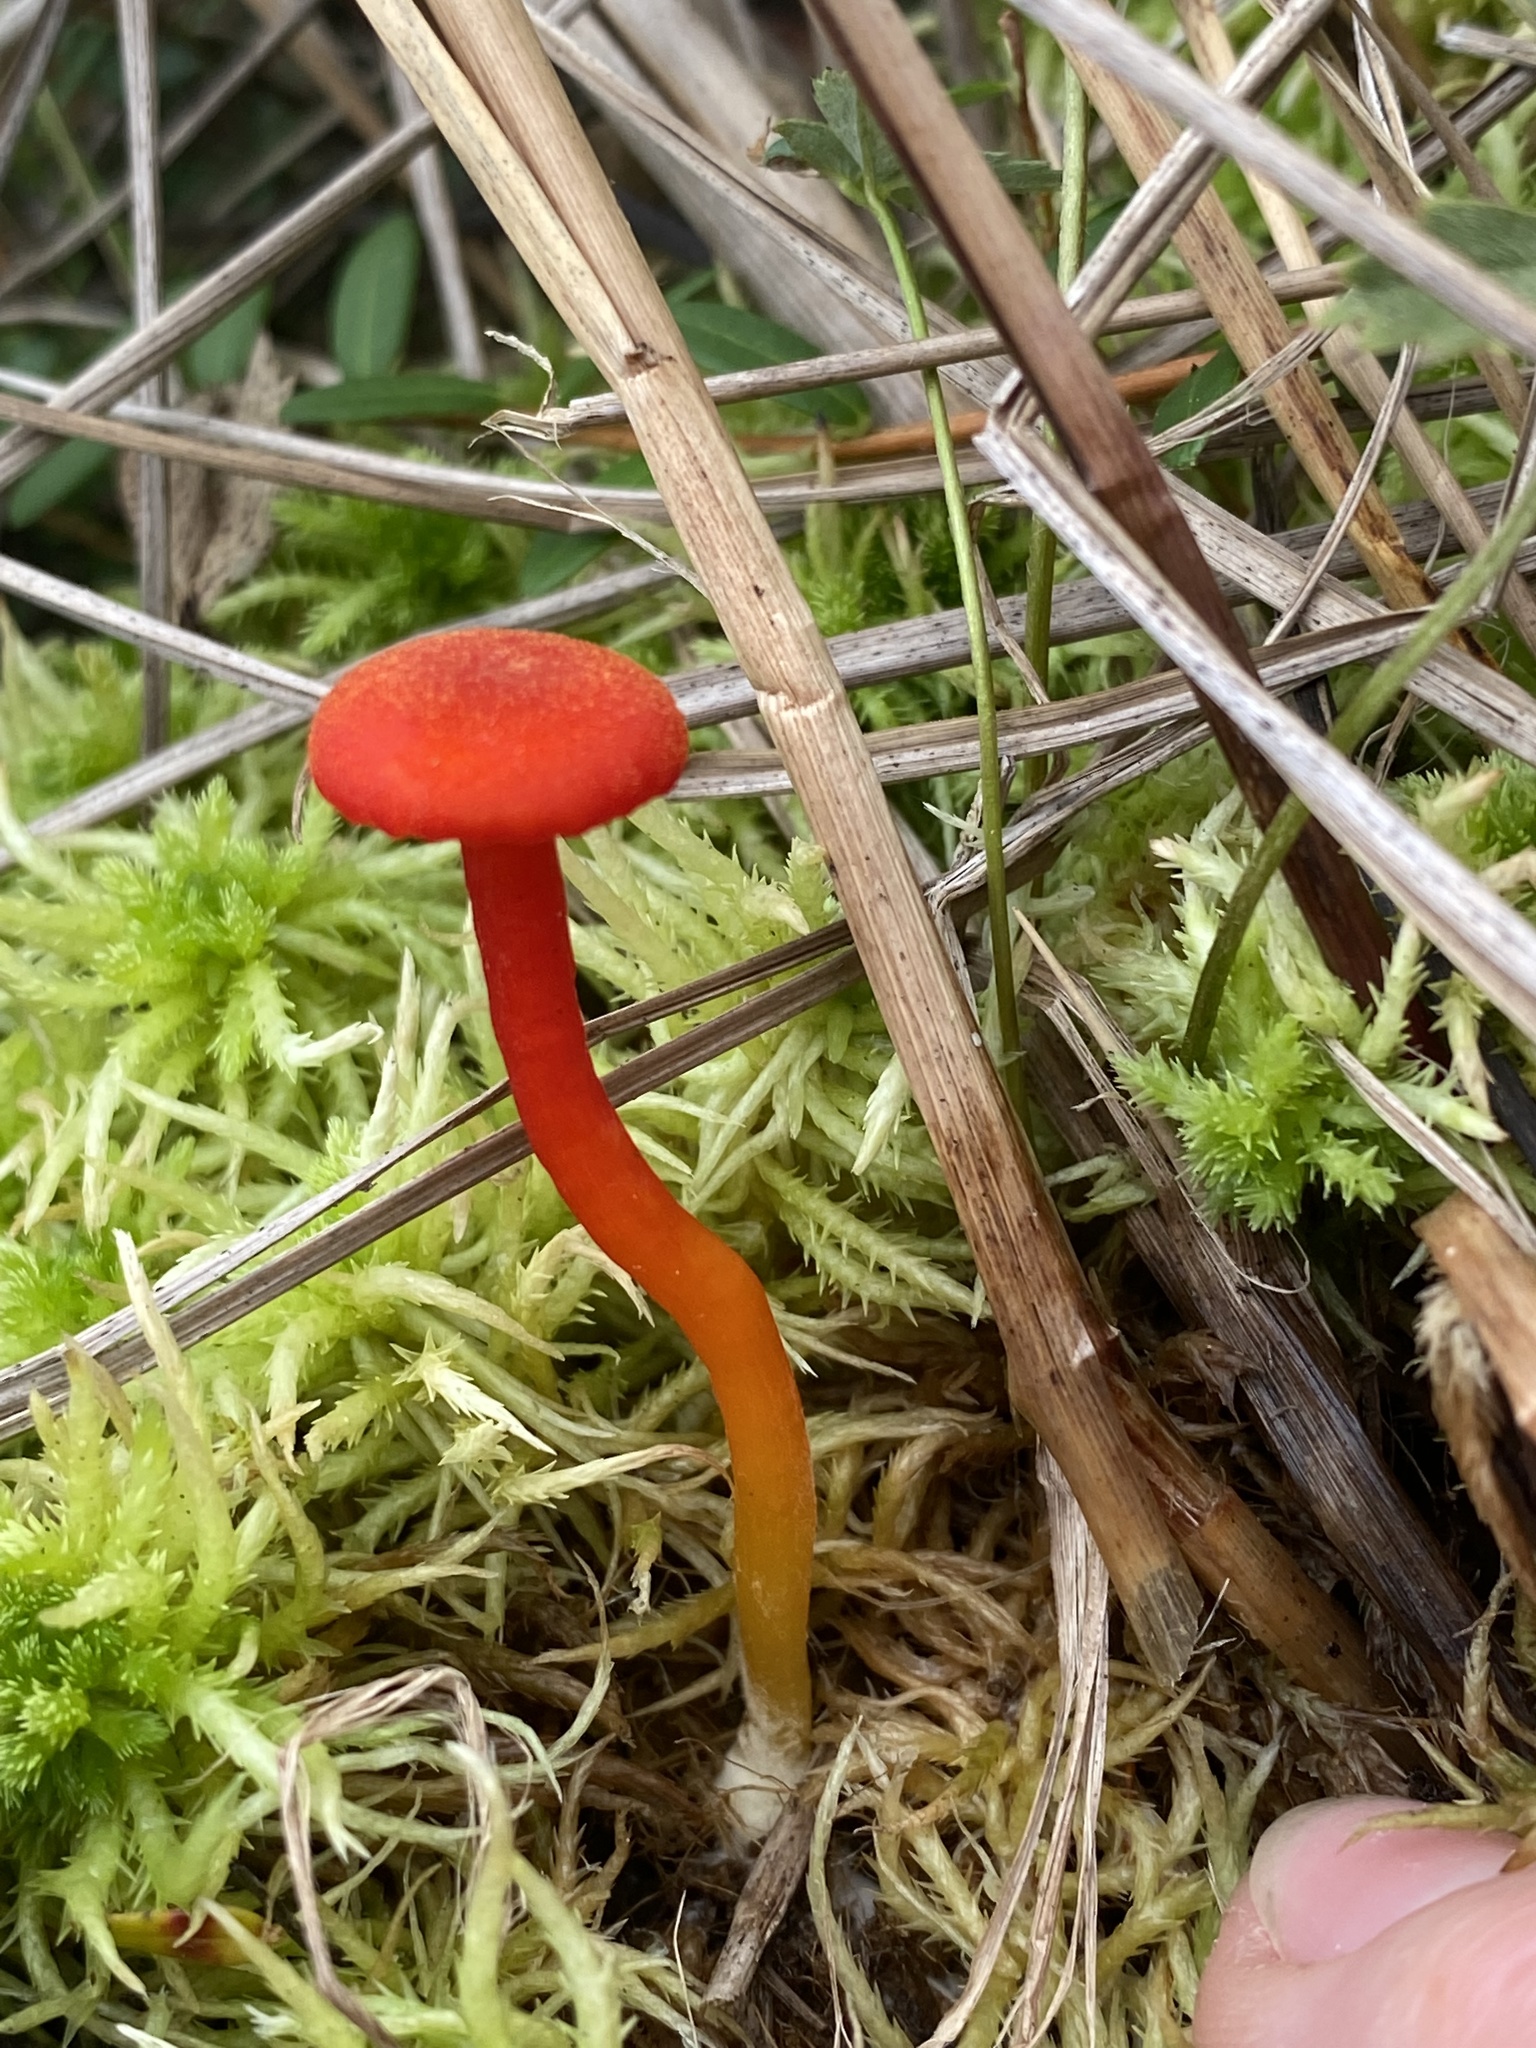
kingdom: Fungi
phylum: Basidiomycota
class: Agaricomycetes
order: Agaricales
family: Hygrophoraceae
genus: Hygrocybe
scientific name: Hygrocybe miniata
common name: Vermilion waxcap
